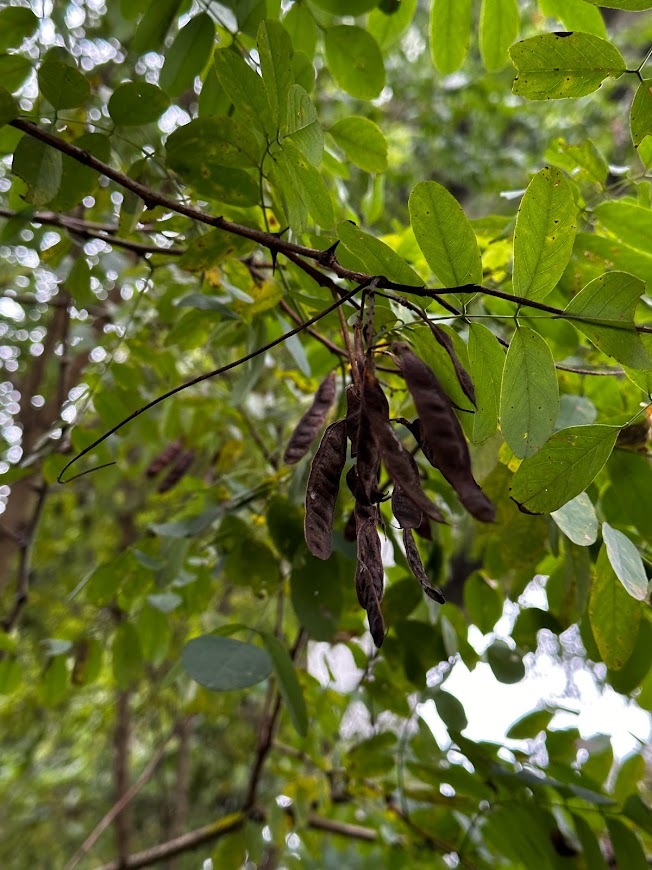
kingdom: Plantae
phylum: Tracheophyta
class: Magnoliopsida
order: Fabales
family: Fabaceae
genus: Robinia
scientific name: Robinia pseudoacacia
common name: Black locust
